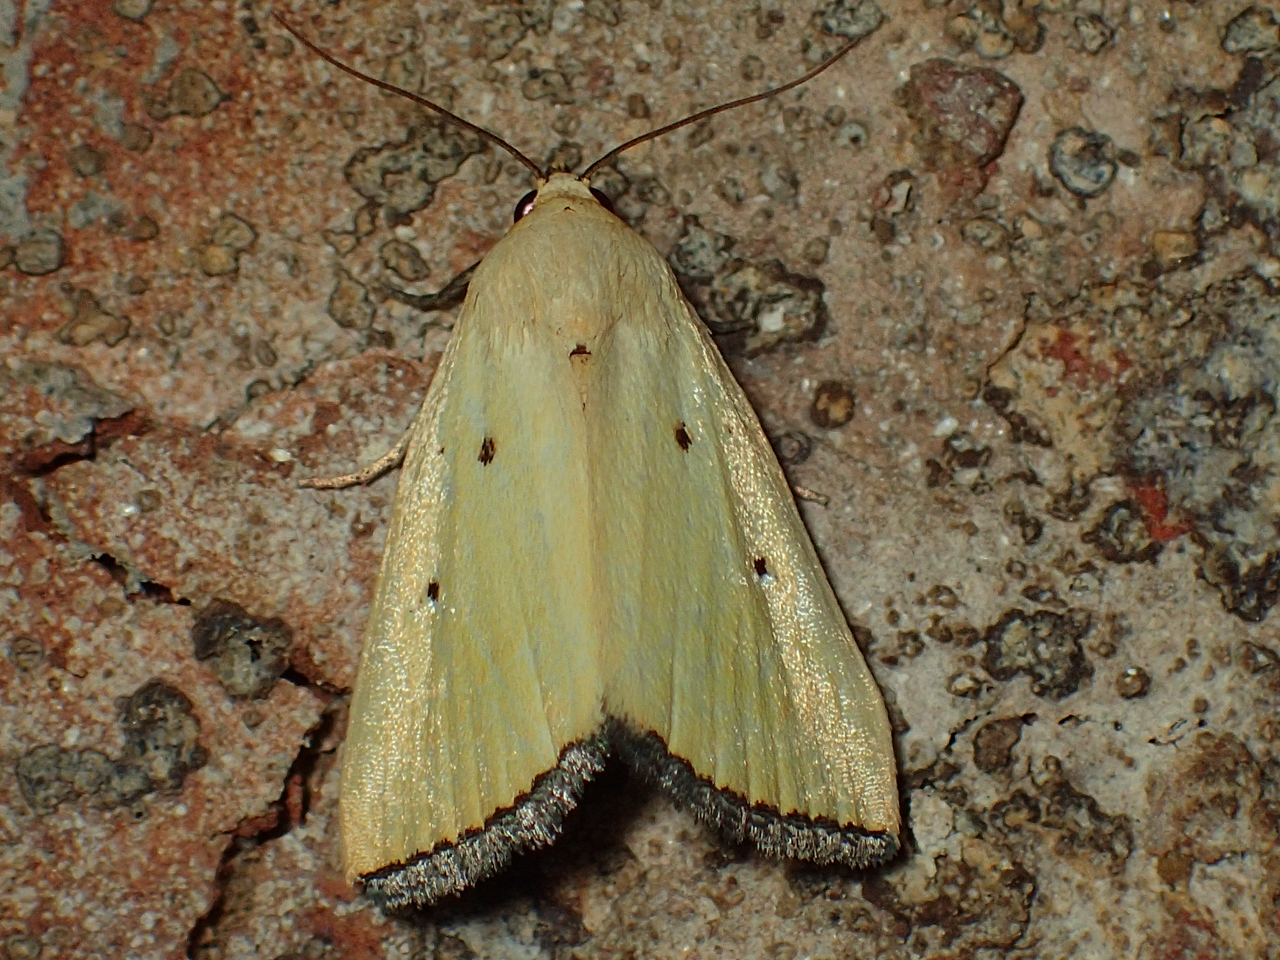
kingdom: Animalia
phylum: Arthropoda
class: Insecta
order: Lepidoptera
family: Noctuidae
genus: Marimatha
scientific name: Marimatha nigrofimbria
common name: Black-bordered lemon moth
